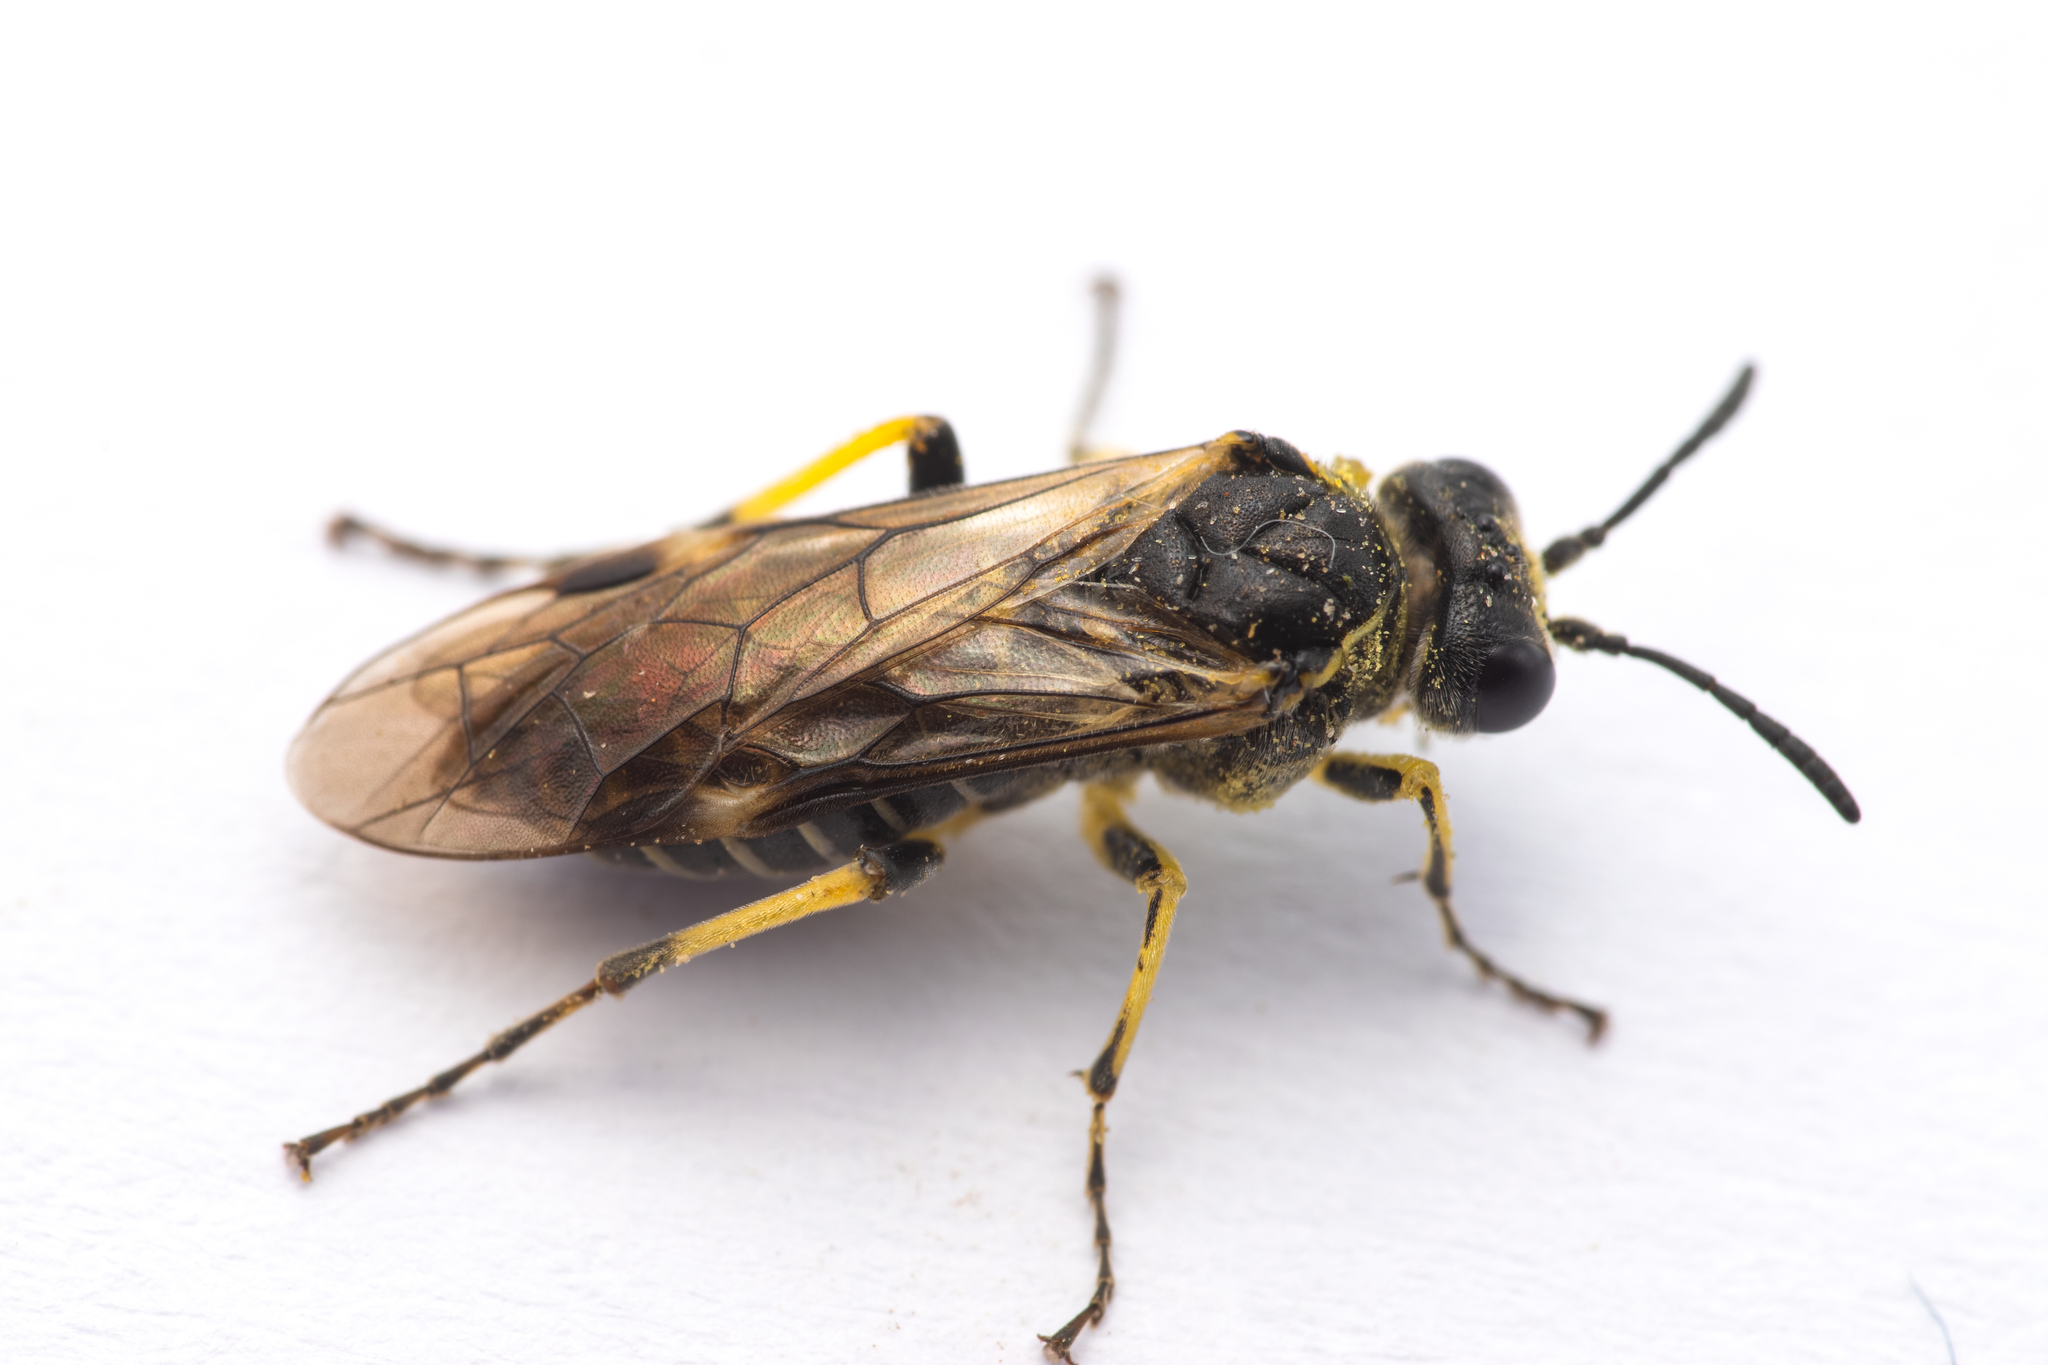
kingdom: Animalia
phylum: Arthropoda
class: Insecta
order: Hymenoptera
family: Tenthredinidae
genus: Tenthredo
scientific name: Tenthredo limbalis
